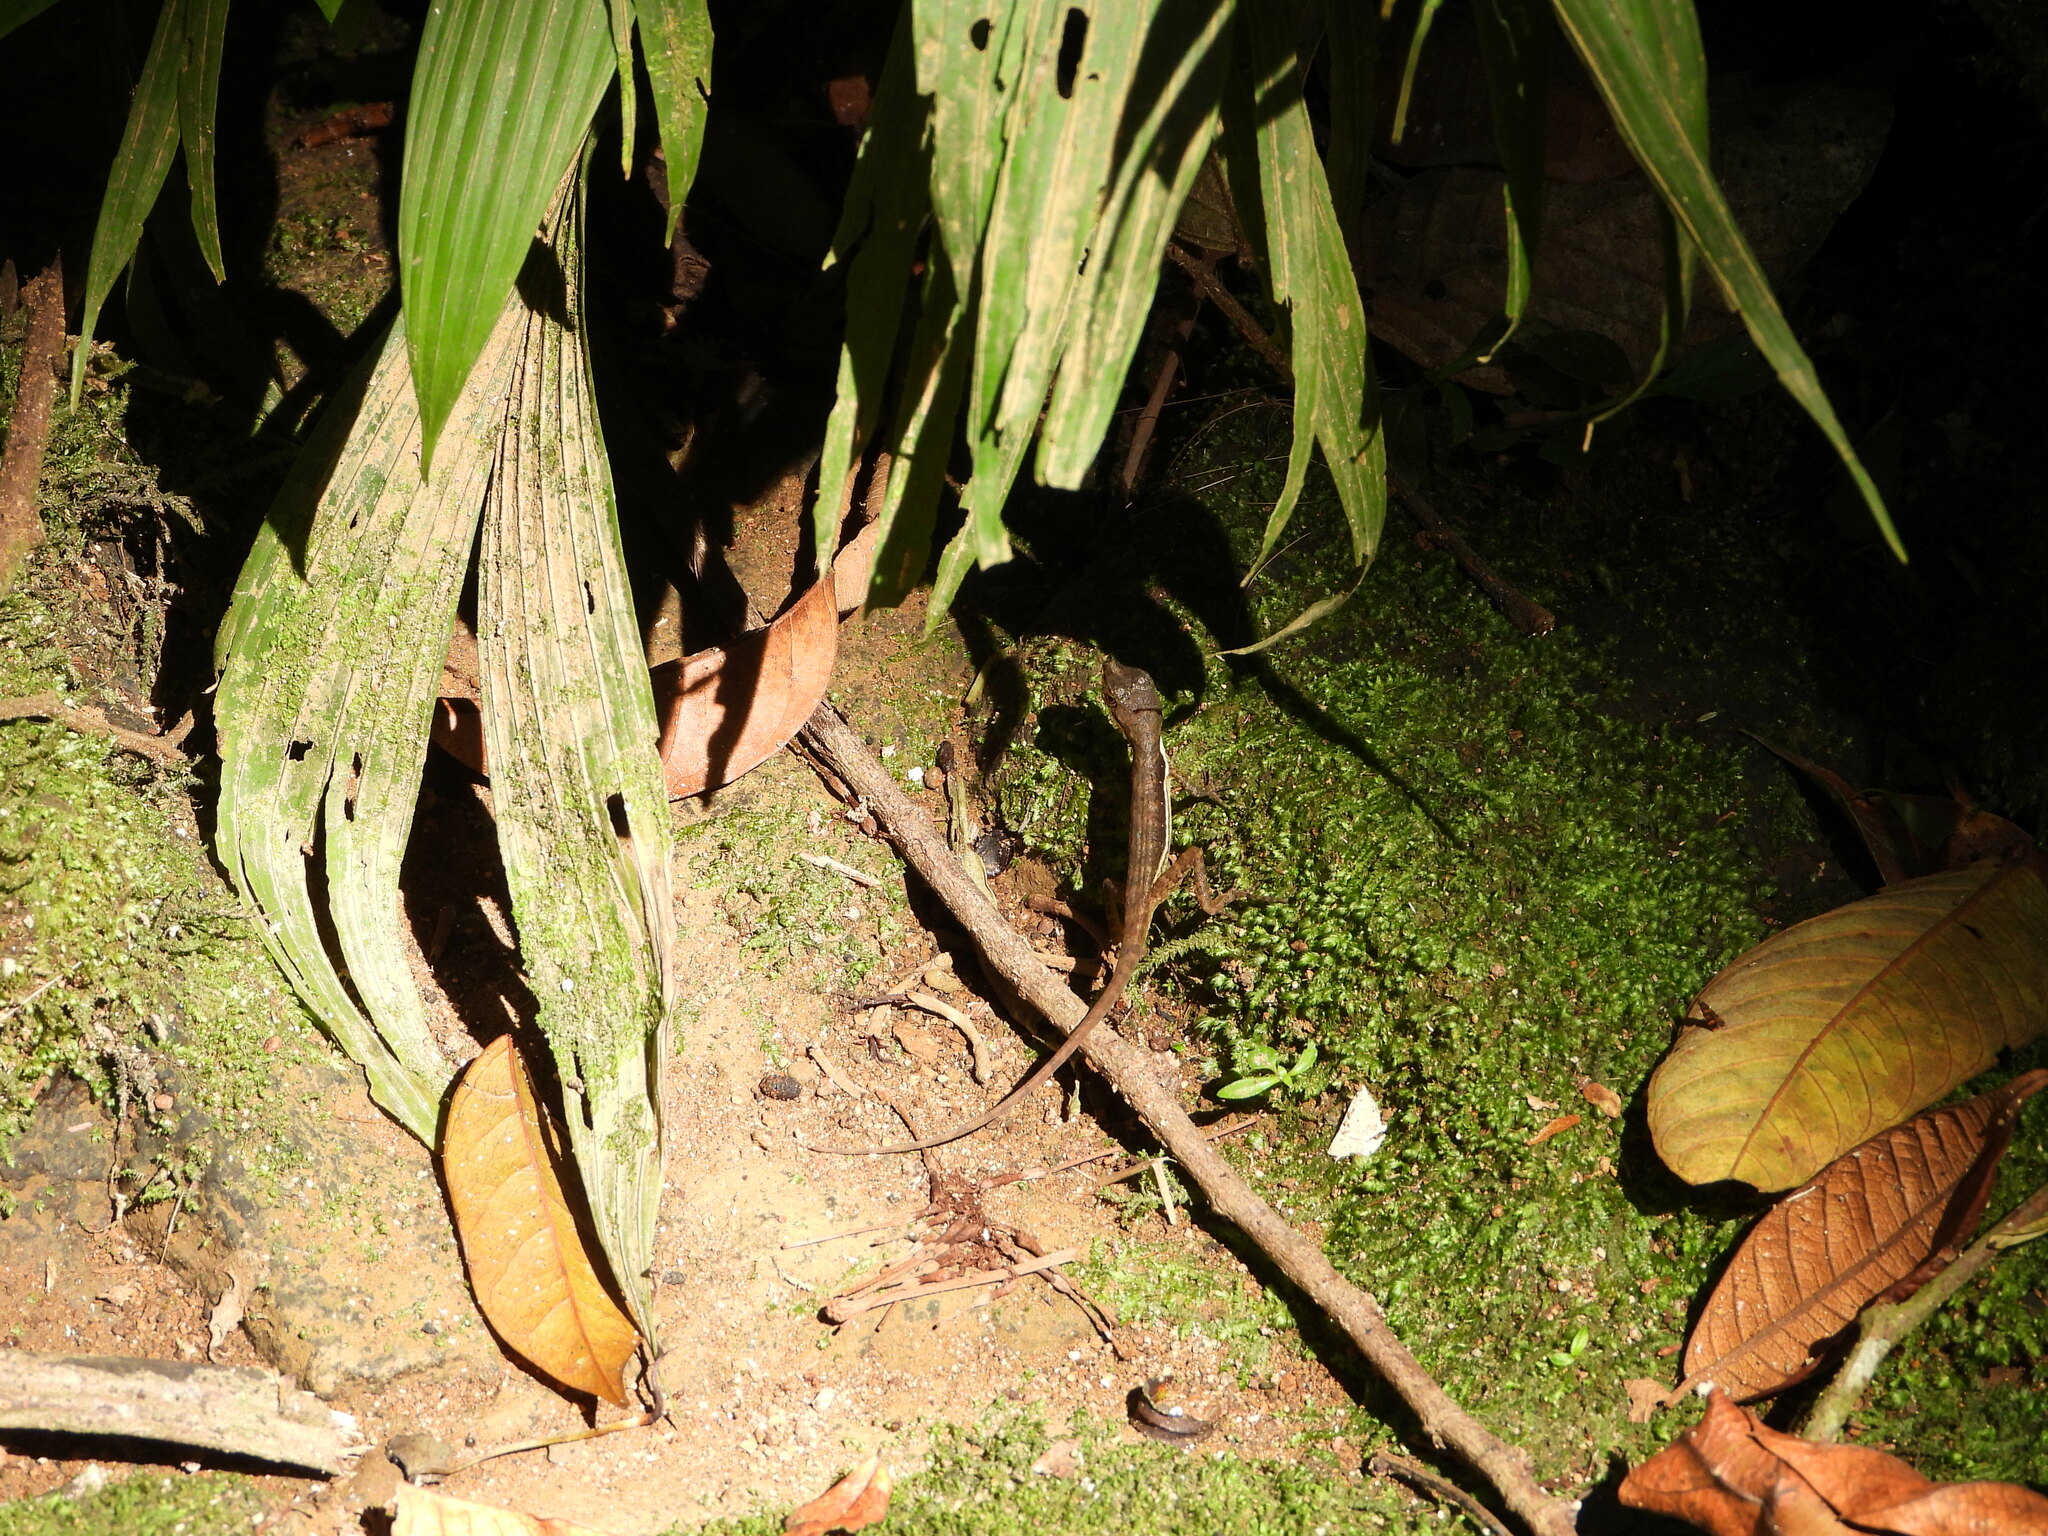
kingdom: Animalia
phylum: Chordata
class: Squamata
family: Dactyloidae
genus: Anolis
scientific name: Anolis oxylophus
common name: Stream anole
